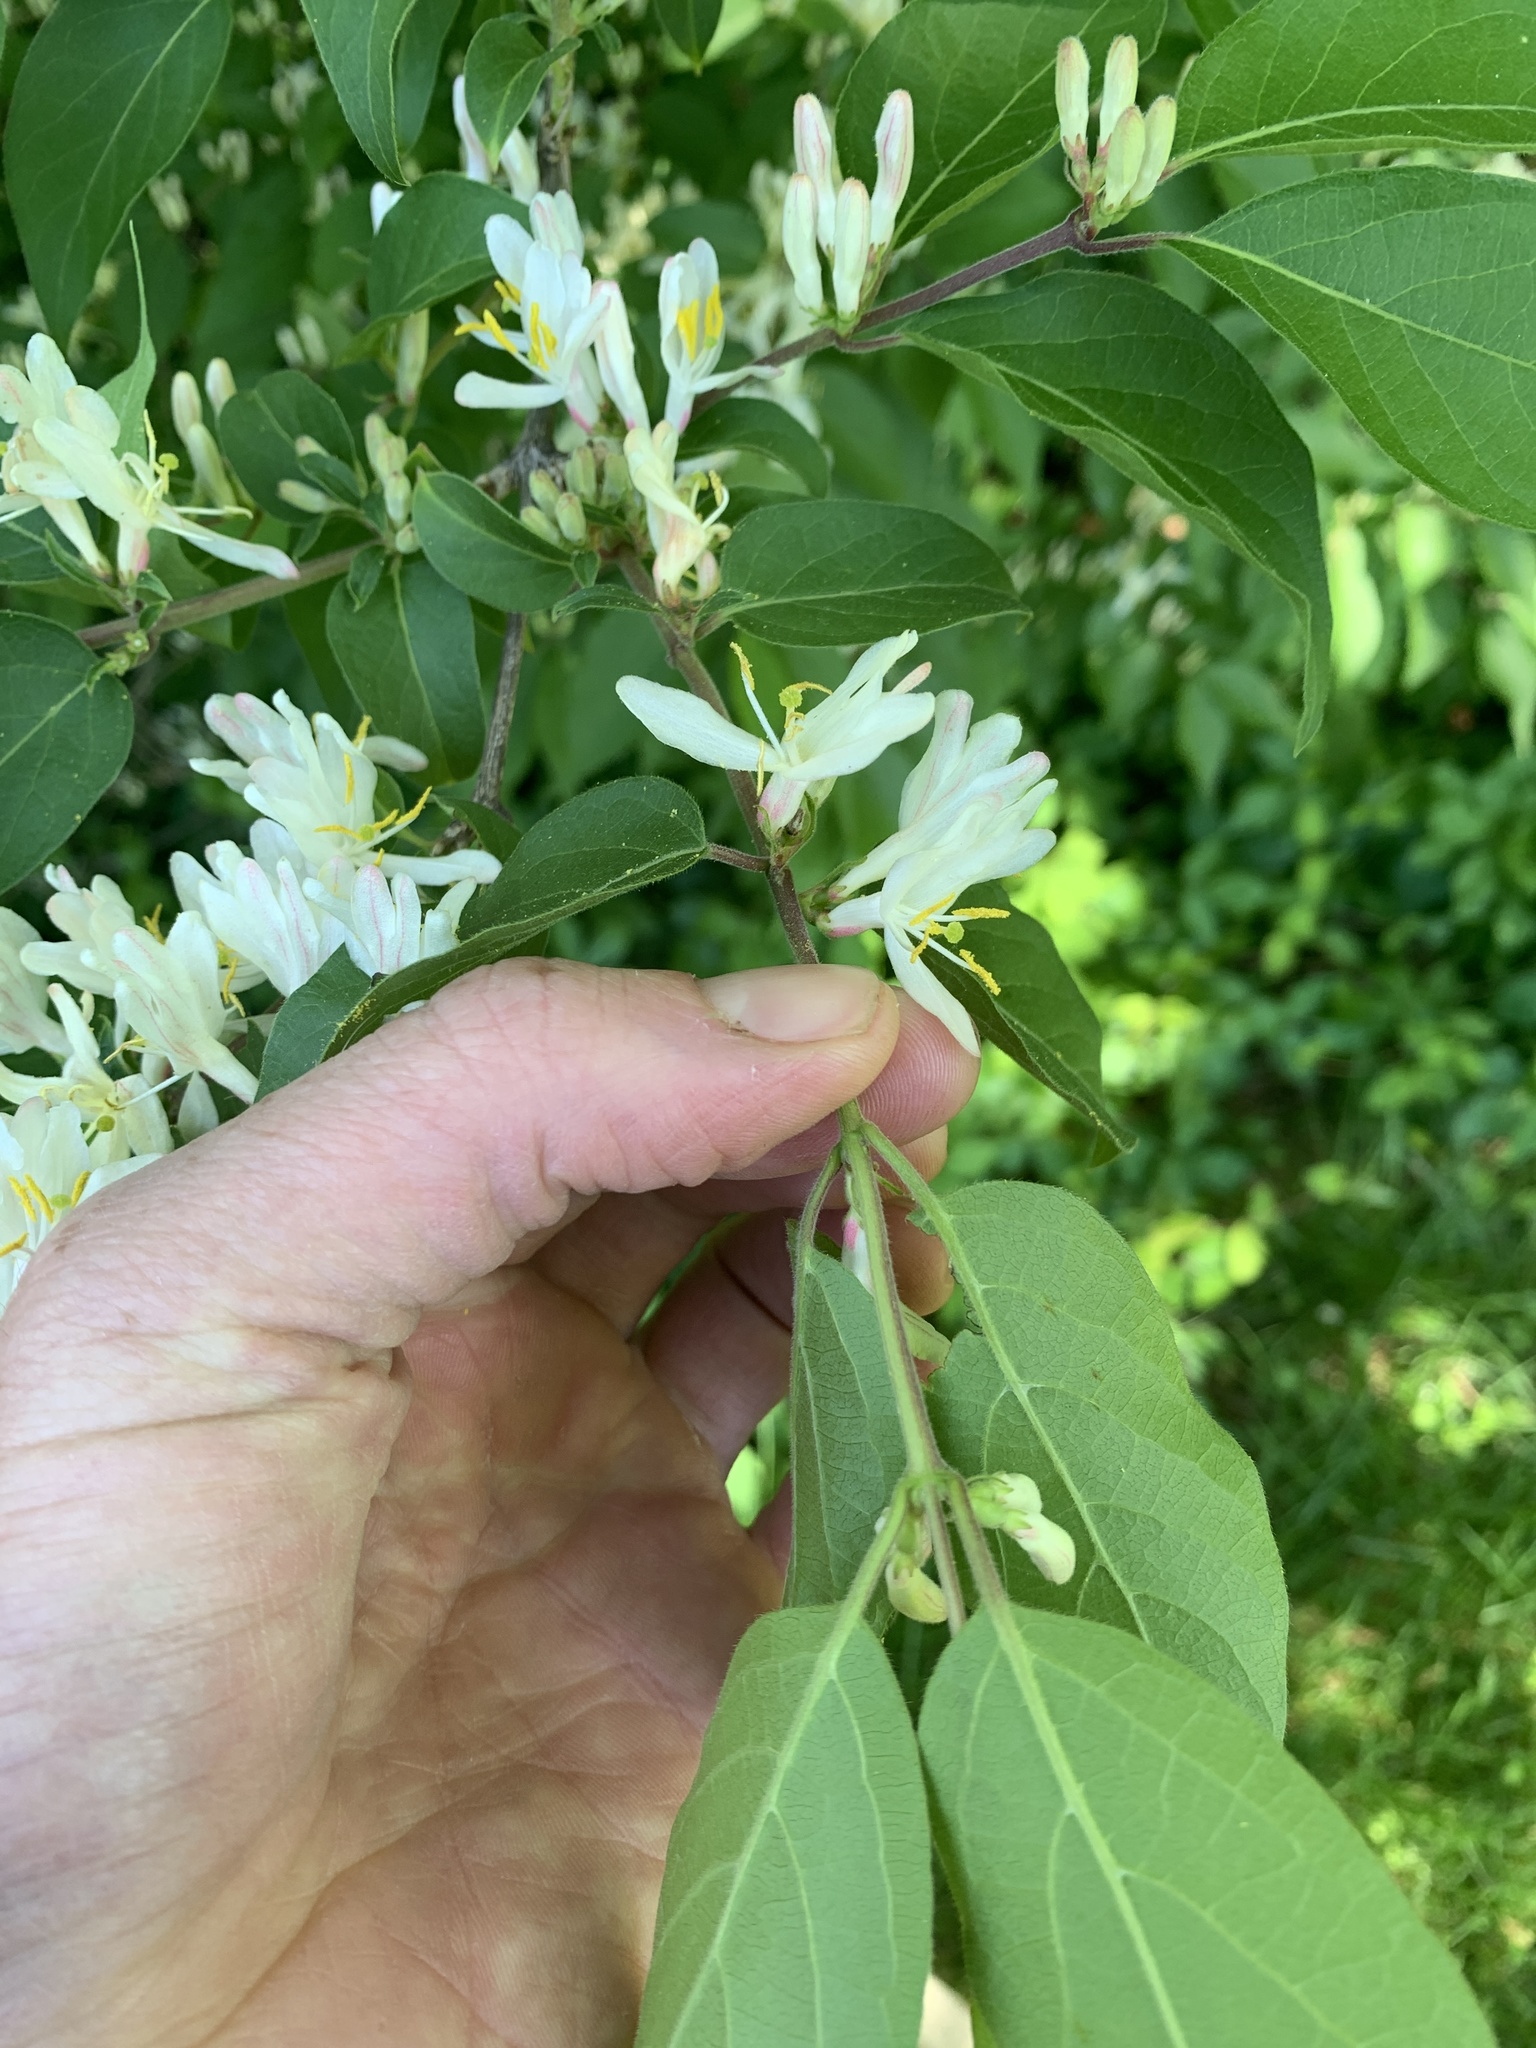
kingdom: Plantae
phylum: Tracheophyta
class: Magnoliopsida
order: Dipsacales
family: Caprifoliaceae
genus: Lonicera
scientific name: Lonicera maackii
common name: Amur honeysuckle
